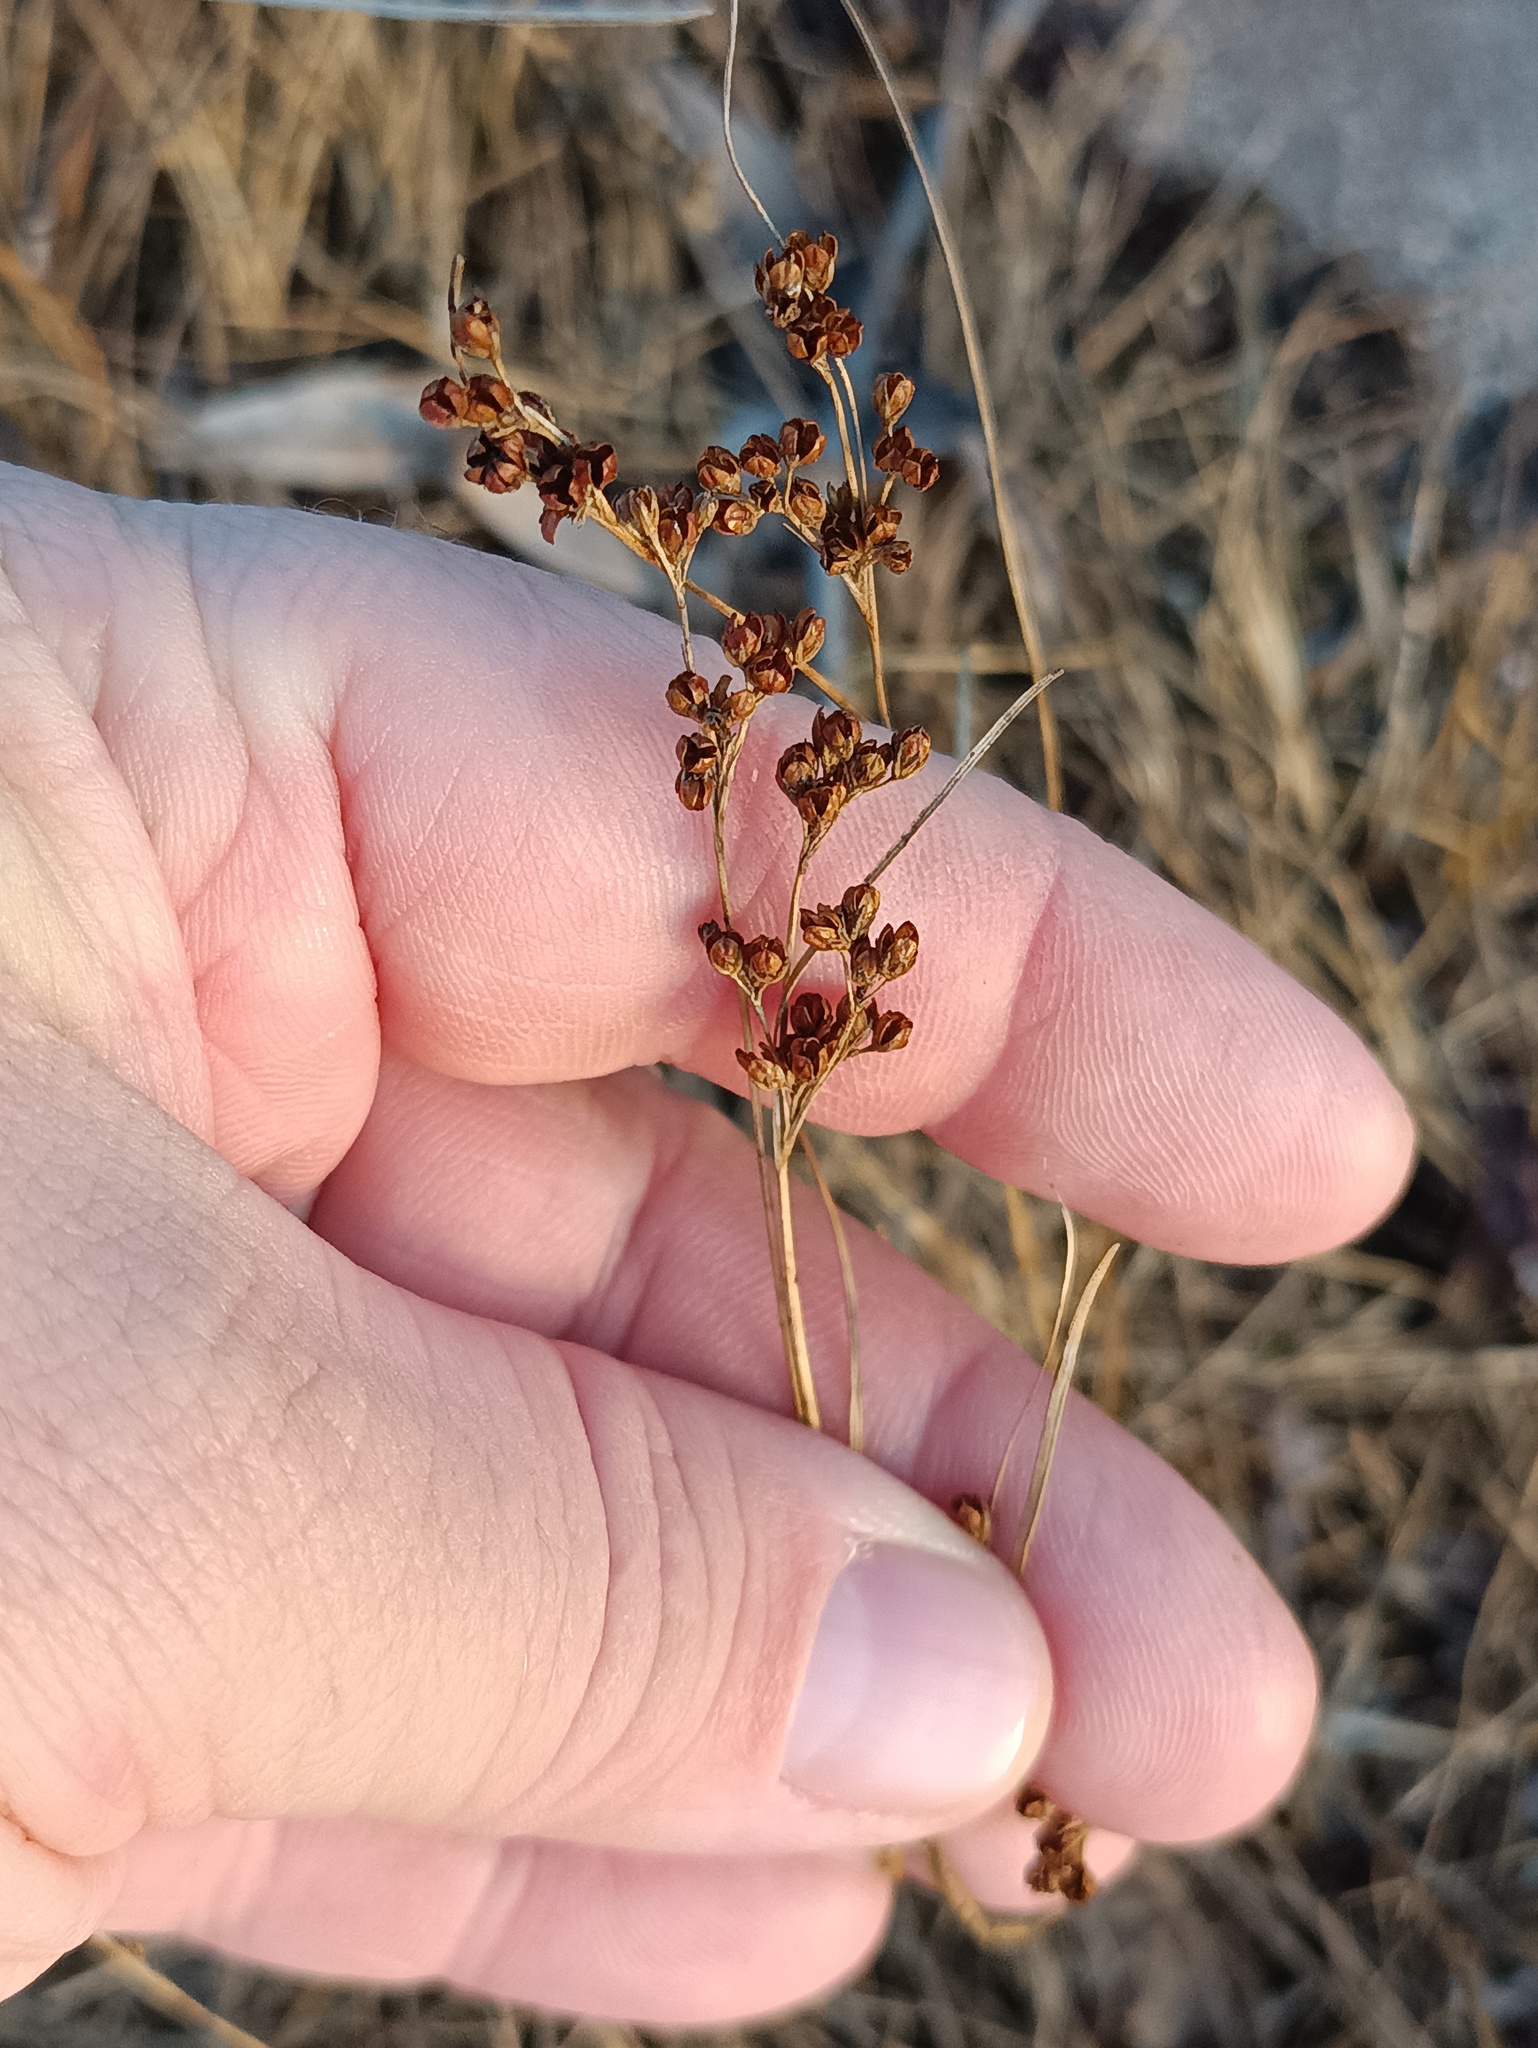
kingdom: Plantae
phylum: Tracheophyta
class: Liliopsida
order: Poales
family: Juncaceae
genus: Juncus
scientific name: Juncus compressus
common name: Round-fruited rush
